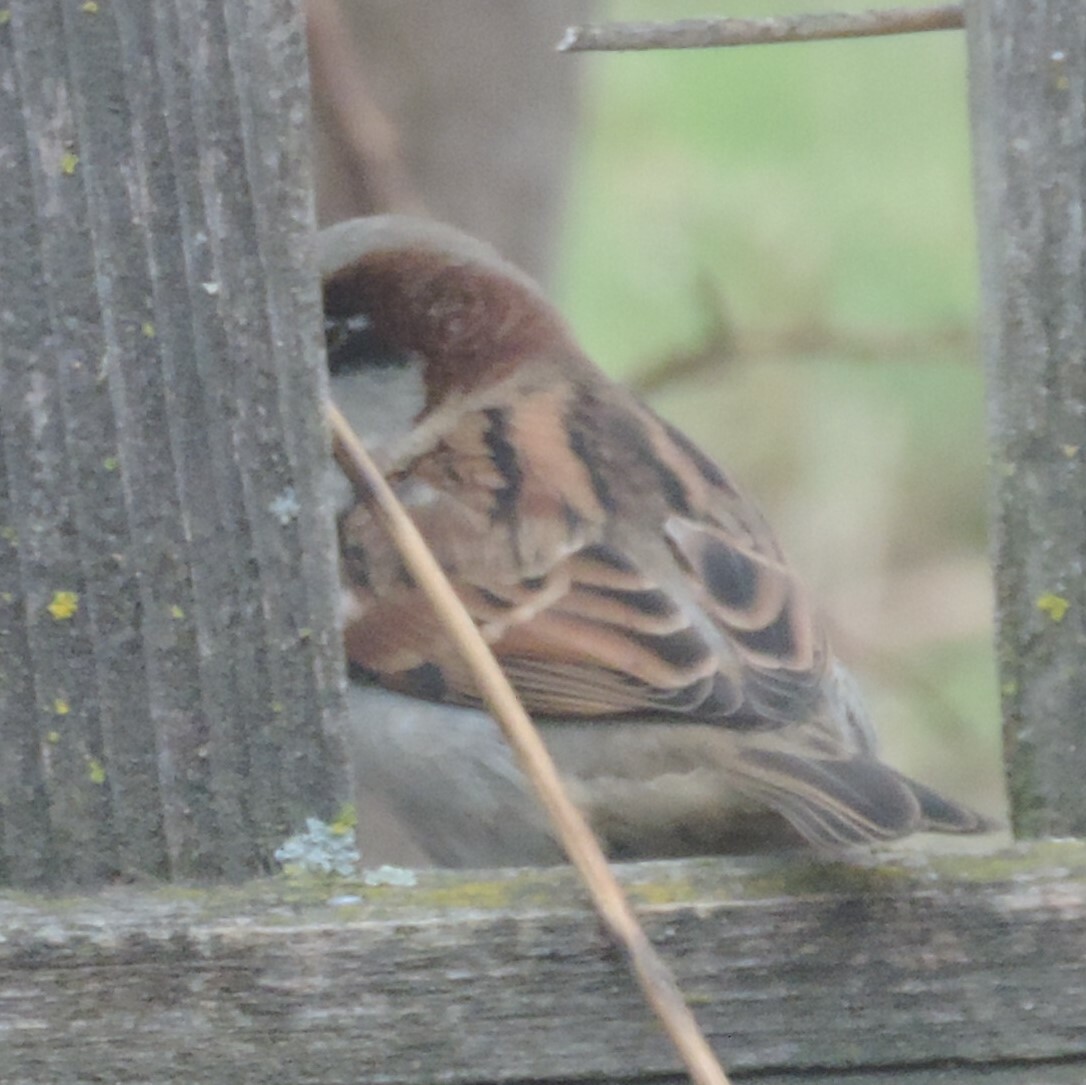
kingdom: Animalia
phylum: Chordata
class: Aves
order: Passeriformes
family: Passeridae
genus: Passer
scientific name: Passer domesticus
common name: House sparrow
